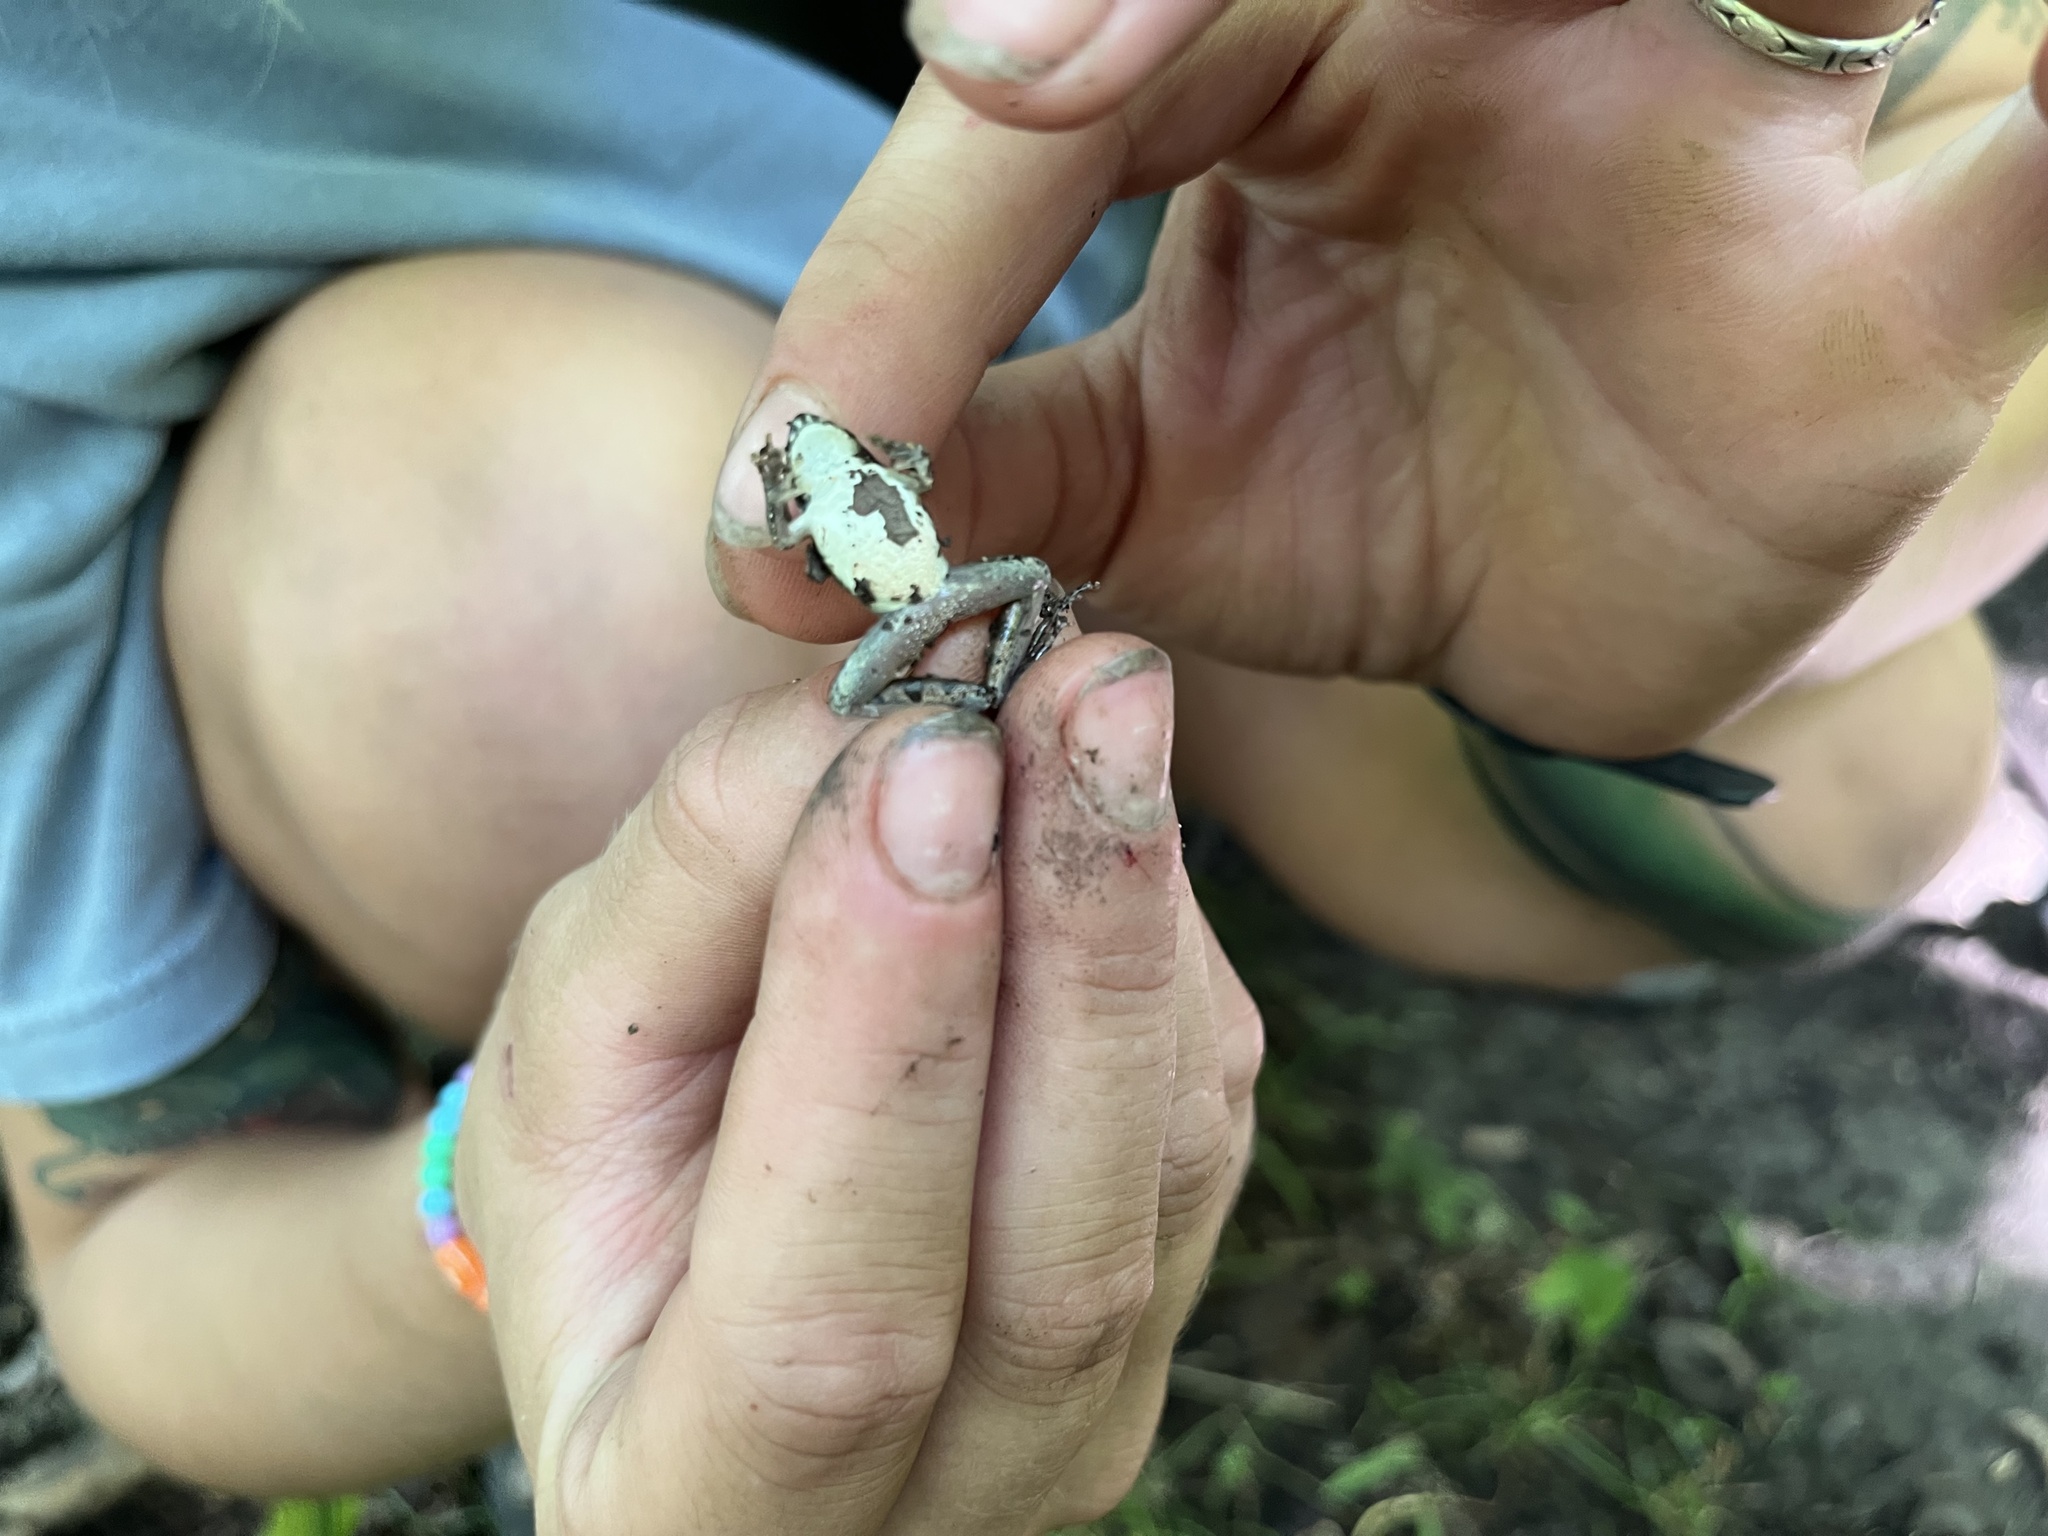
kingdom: Animalia
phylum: Chordata
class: Amphibia
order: Anura
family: Hylidae
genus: Acris
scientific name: Acris blanchardi
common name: Blanchard's cricket frog
